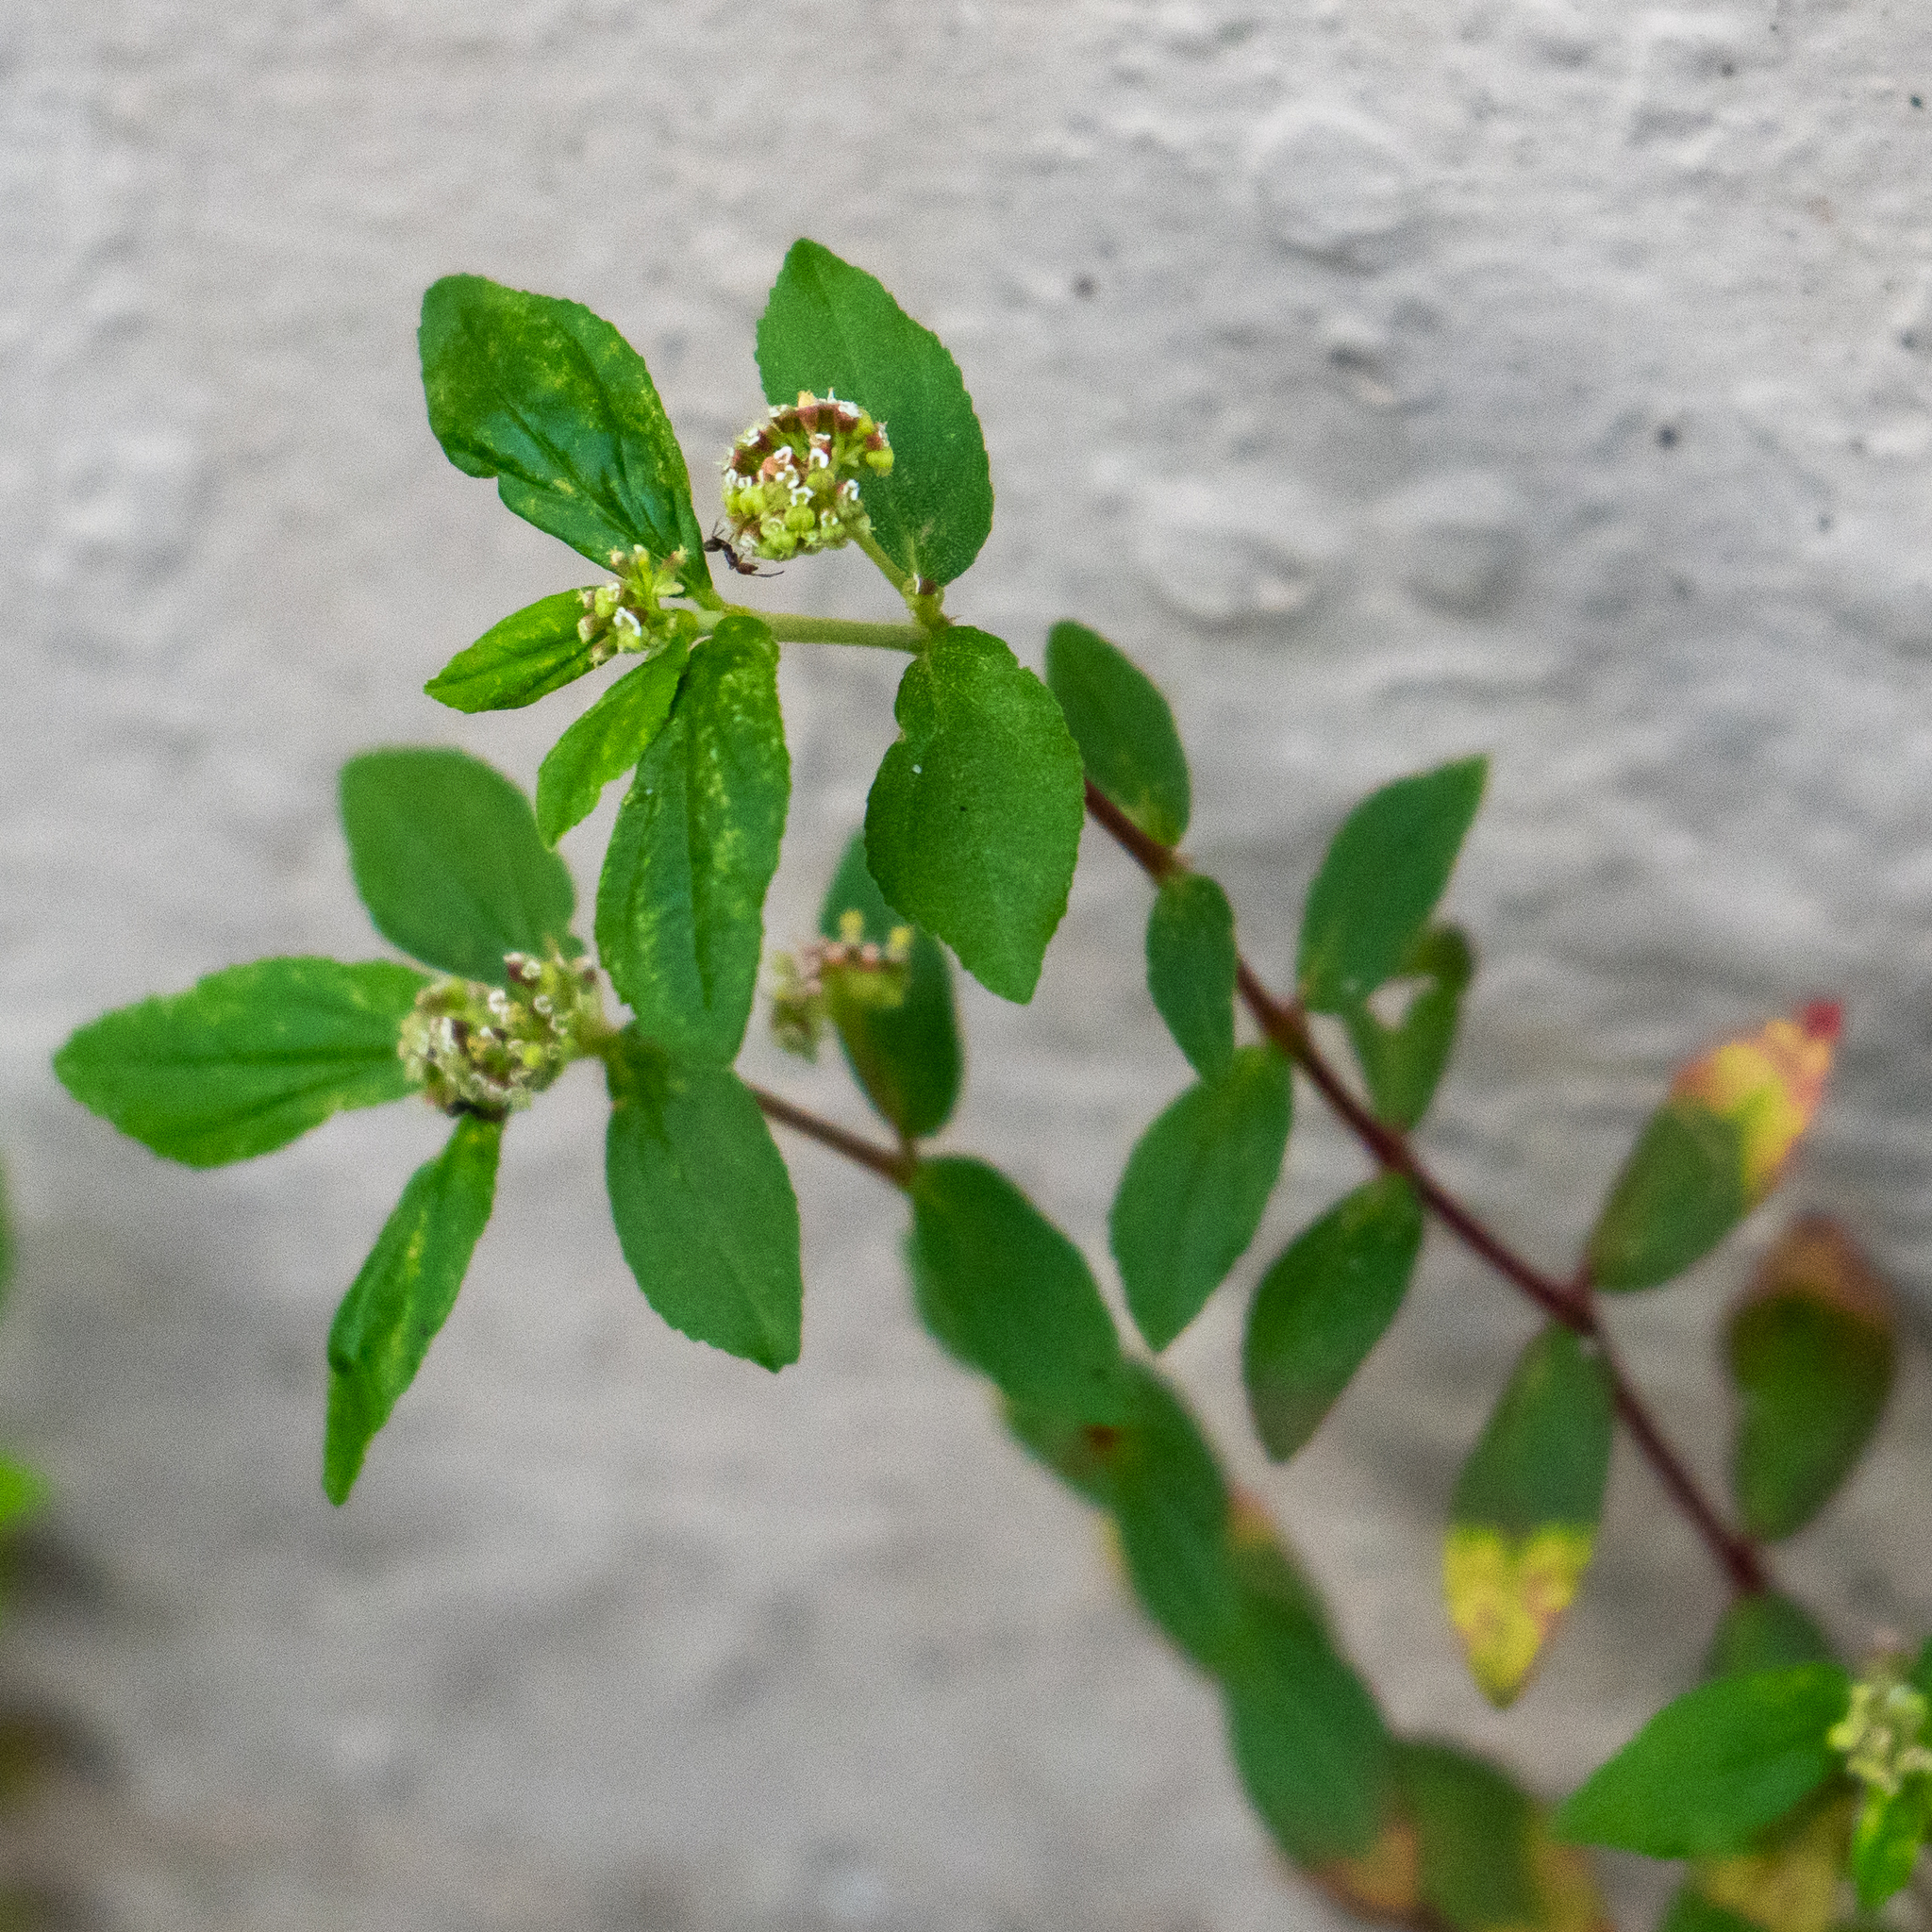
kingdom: Plantae
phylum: Tracheophyta
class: Magnoliopsida
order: Malpighiales
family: Euphorbiaceae
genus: Euphorbia
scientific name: Euphorbia hirta
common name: Pillpod sandmat
